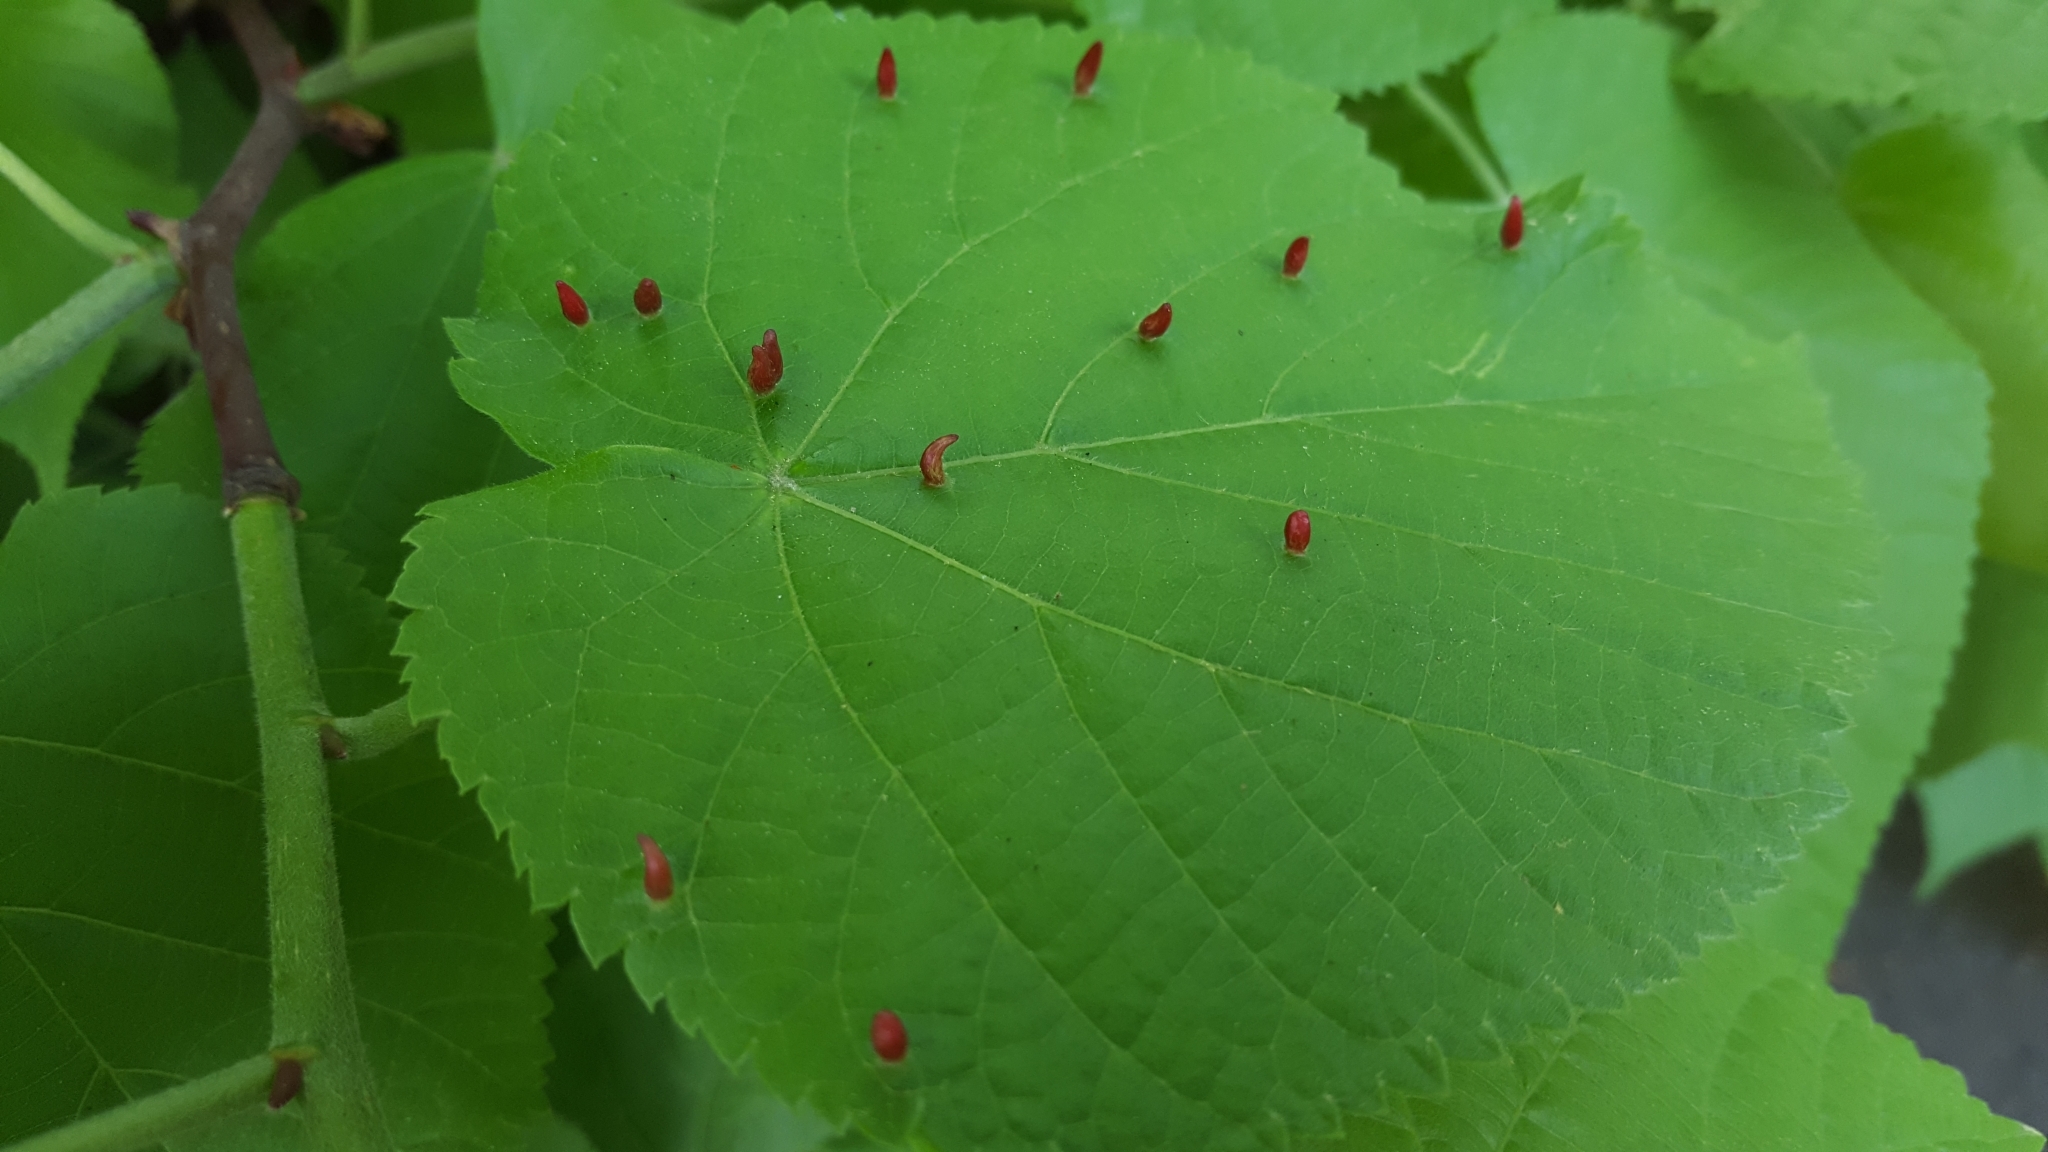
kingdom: Animalia
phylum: Arthropoda
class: Arachnida
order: Trombidiformes
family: Eriophyidae
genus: Eriophyes
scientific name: Eriophyes tiliae
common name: Red nail gall mite
